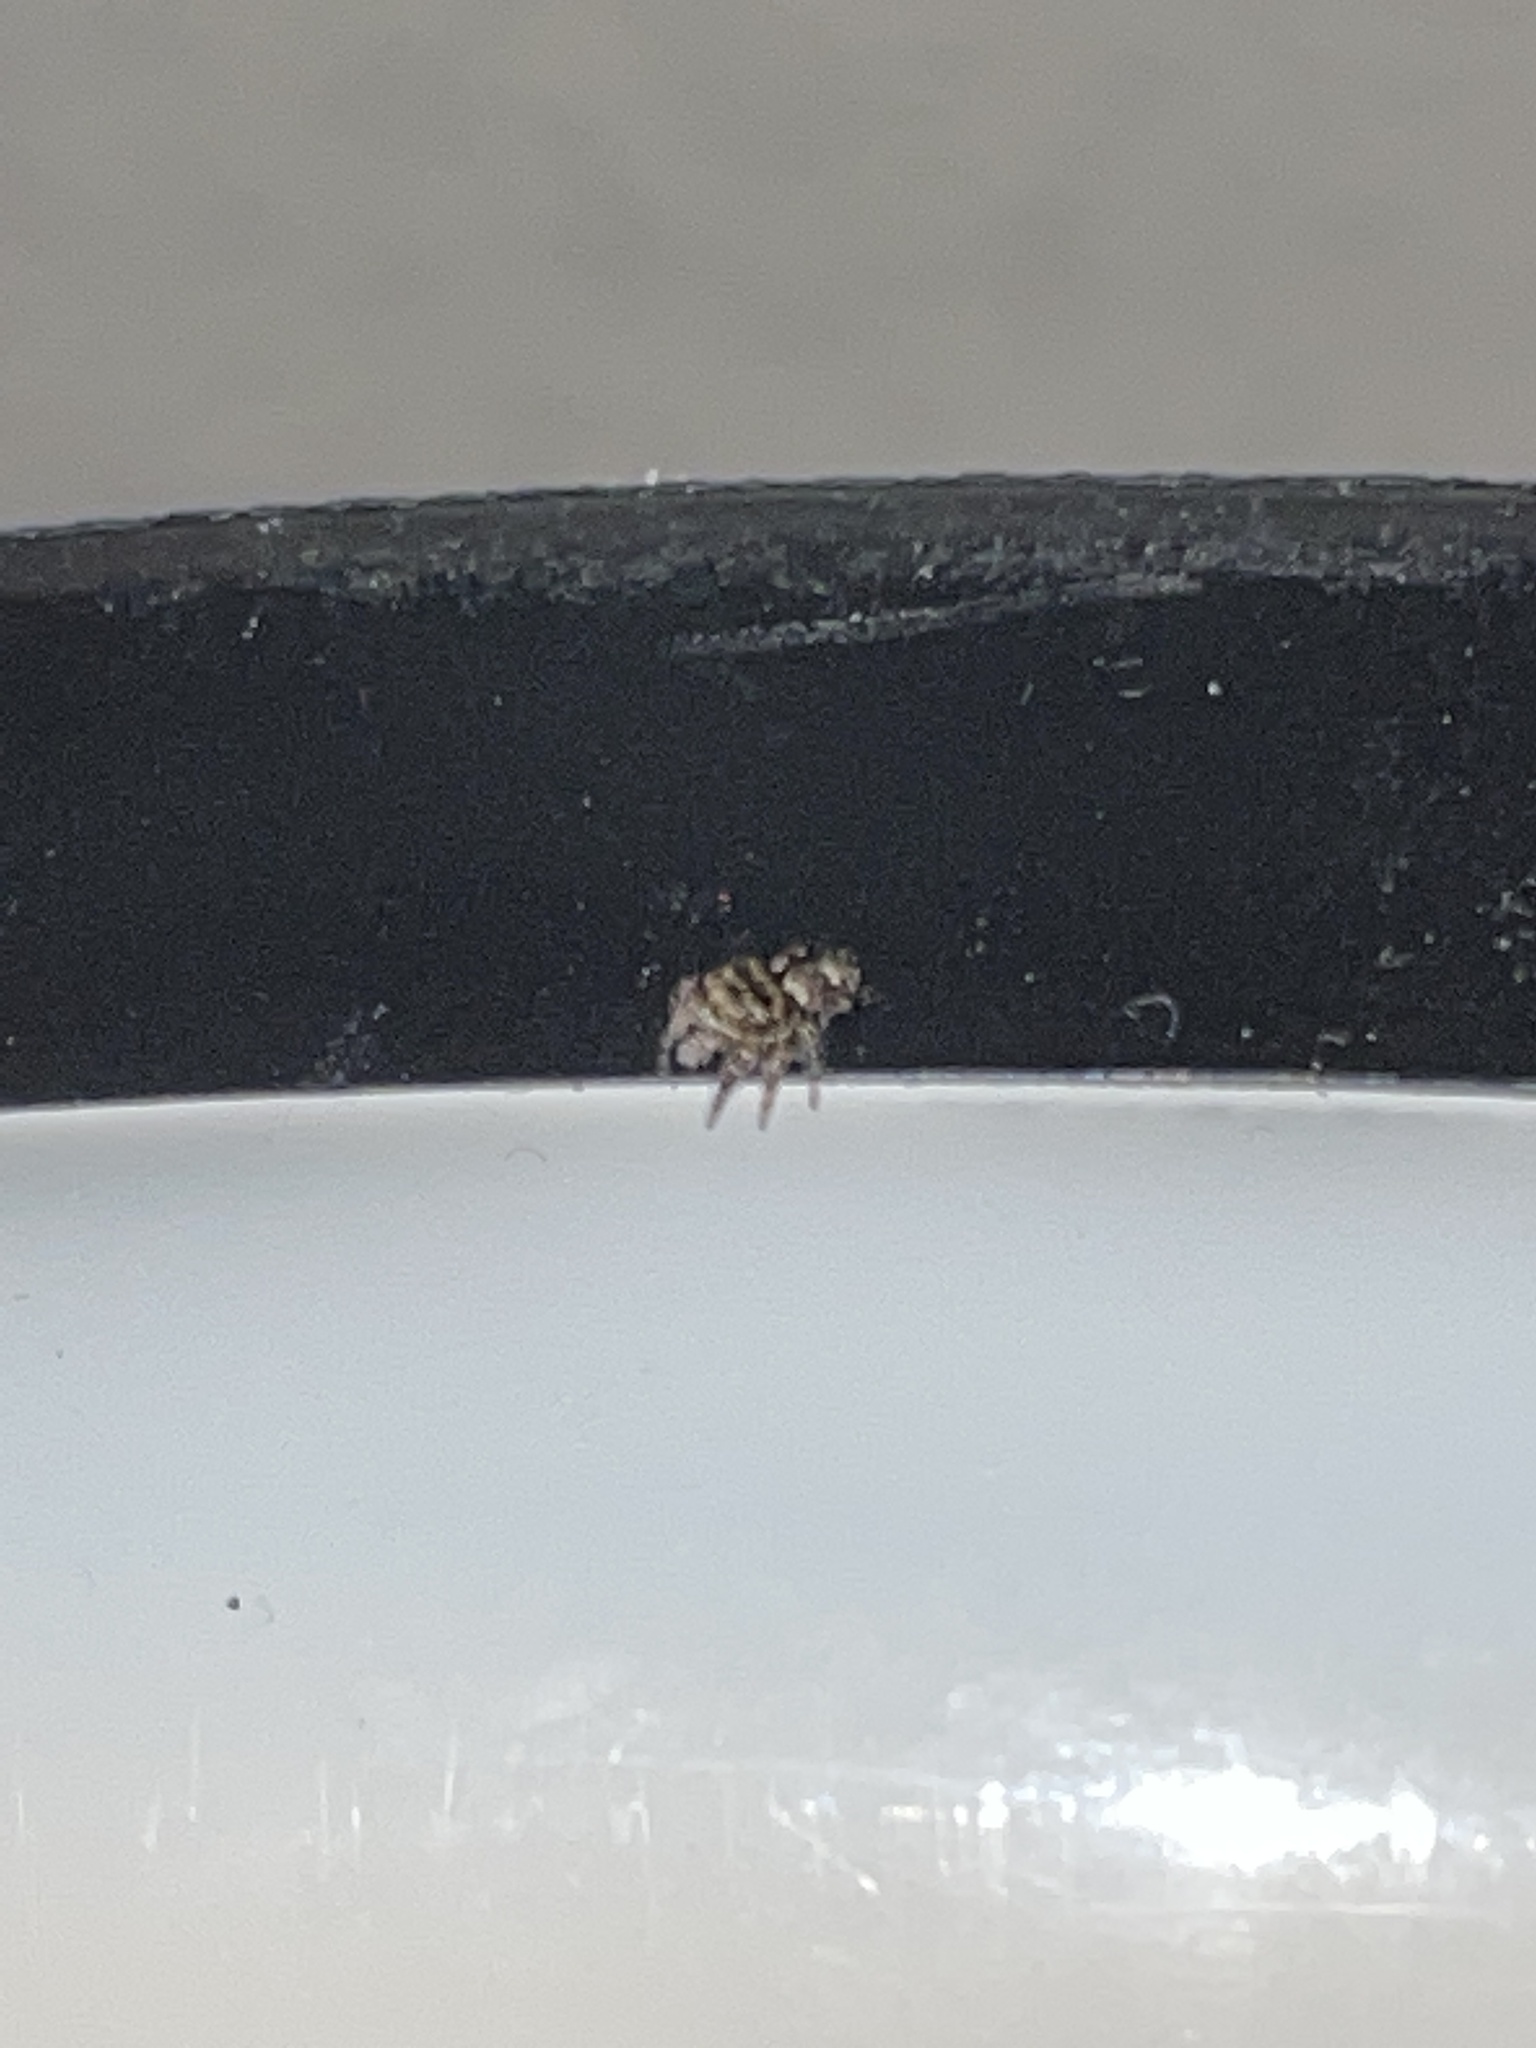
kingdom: Animalia
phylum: Arthropoda
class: Arachnida
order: Araneae
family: Salticidae
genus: Phidippus
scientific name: Phidippus putnami
